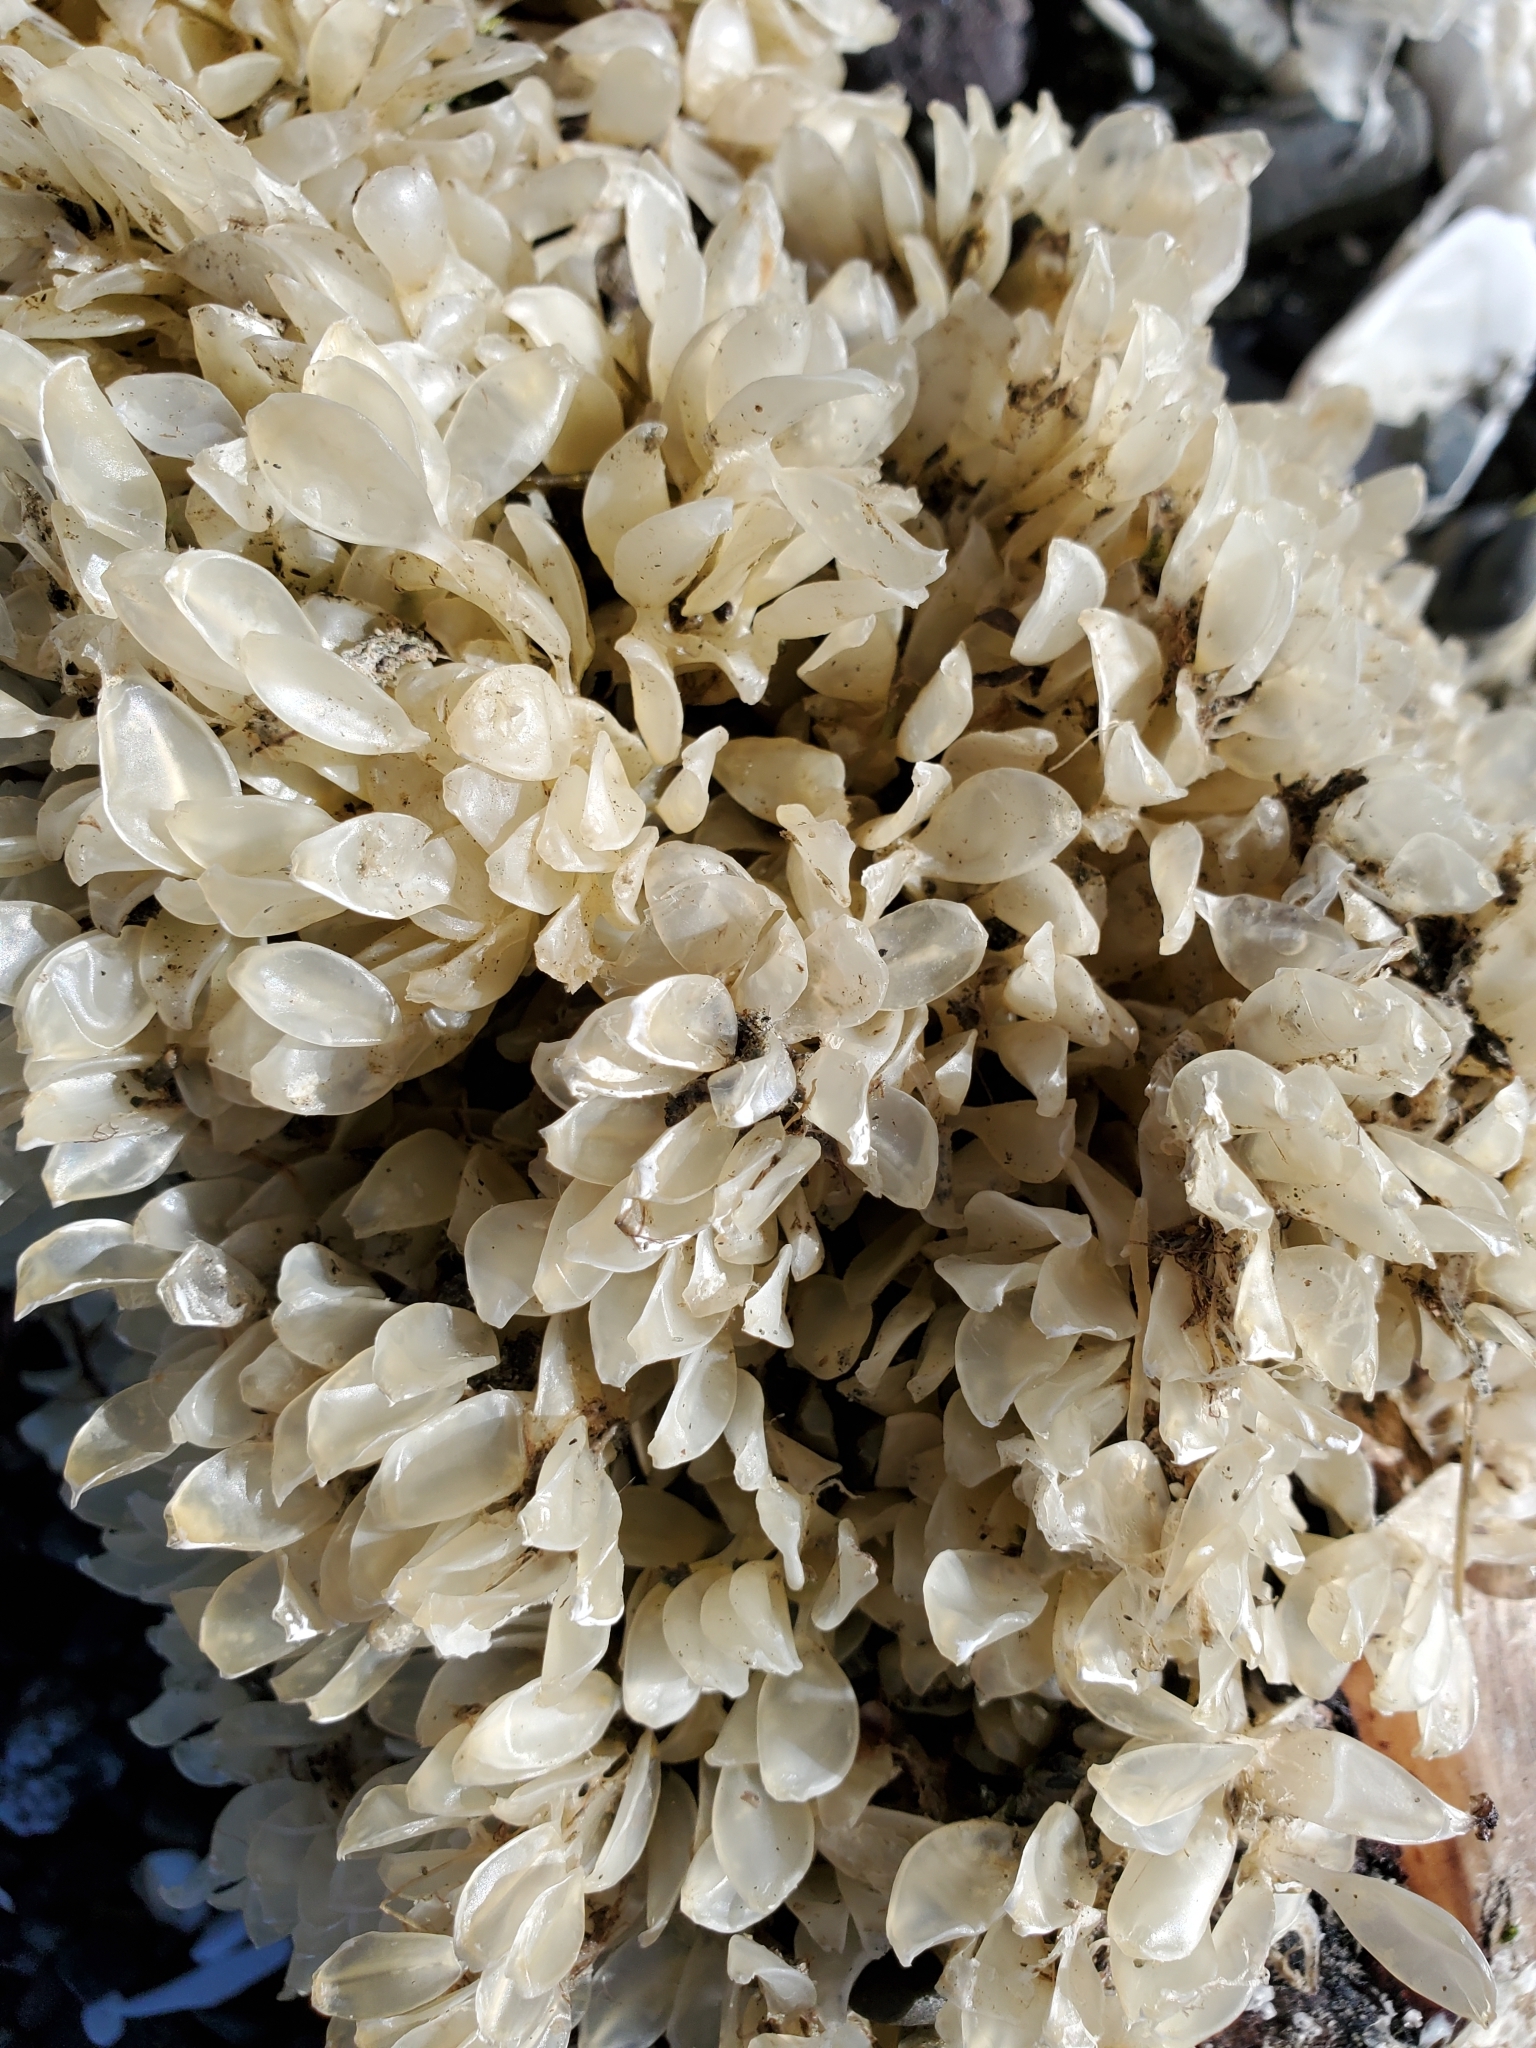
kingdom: Animalia
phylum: Mollusca
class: Gastropoda
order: Neogastropoda
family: Cominellidae
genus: Cominella
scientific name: Cominella adspersa
